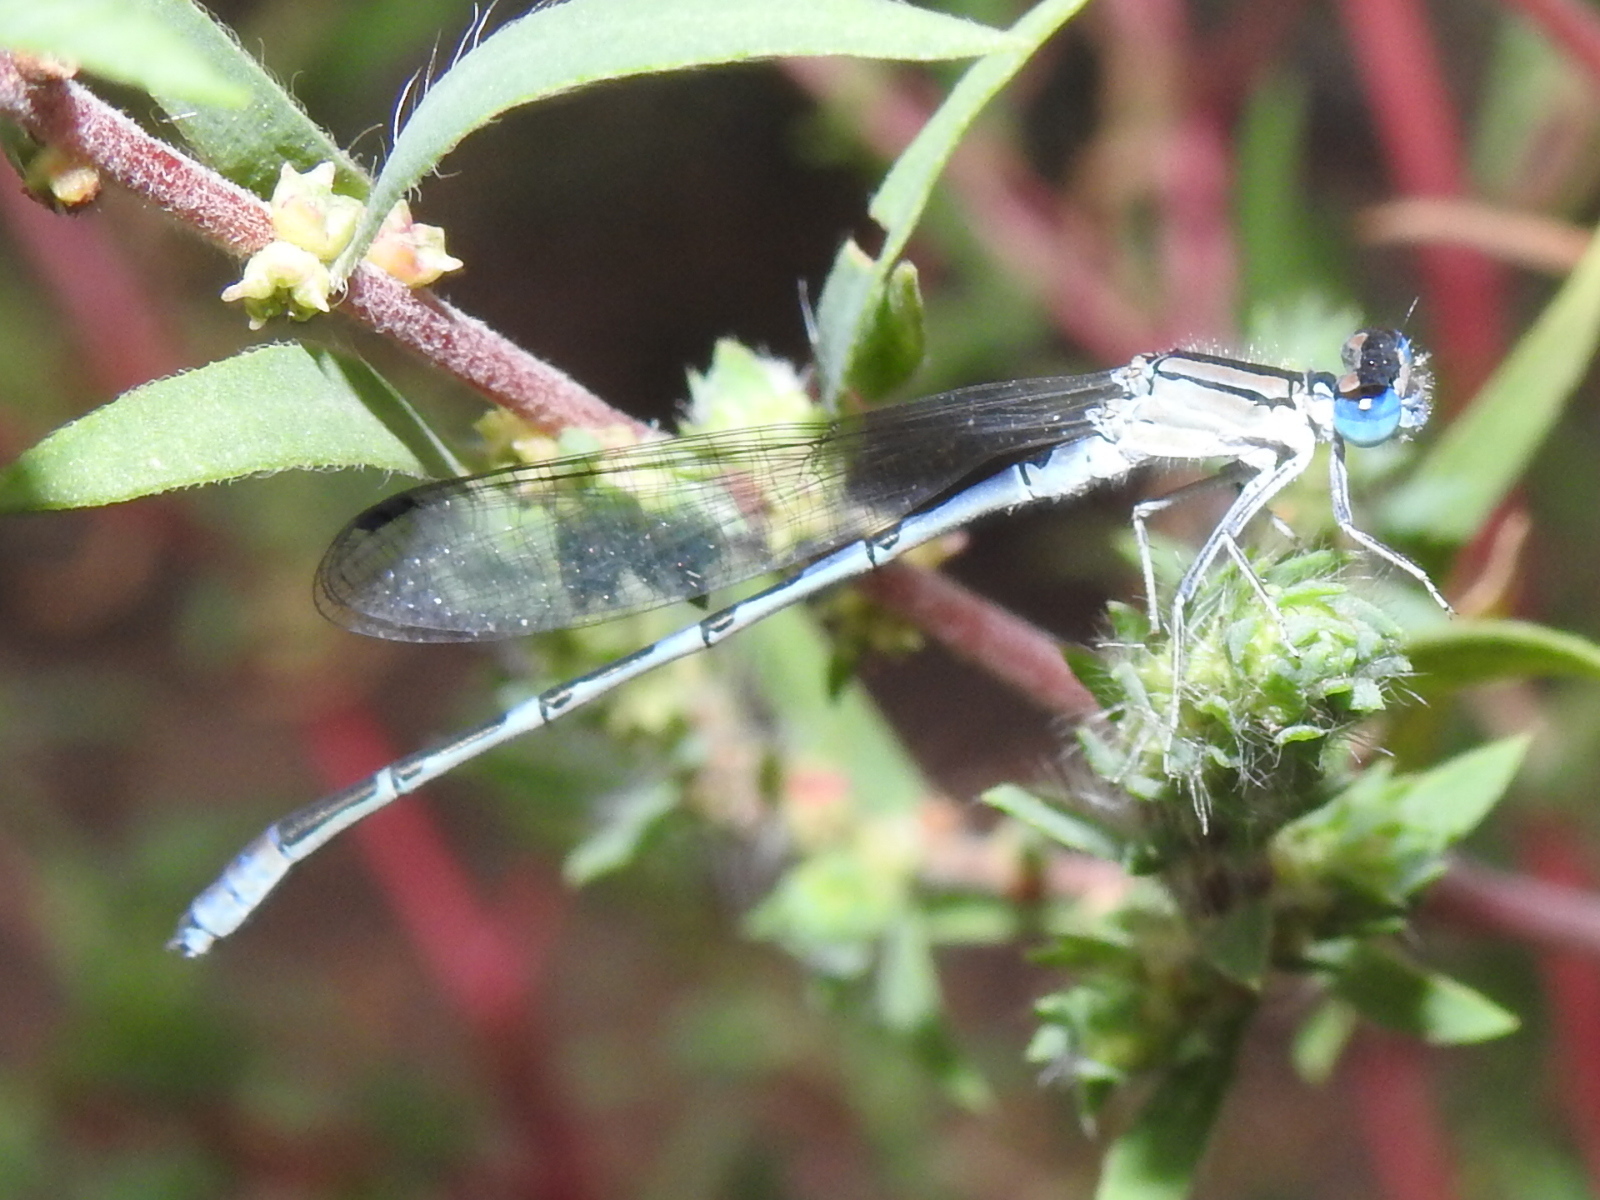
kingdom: Animalia
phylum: Arthropoda
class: Insecta
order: Odonata
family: Coenagrionidae
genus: Enallagma
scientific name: Enallagma praevarum
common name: Arroyo bluet
